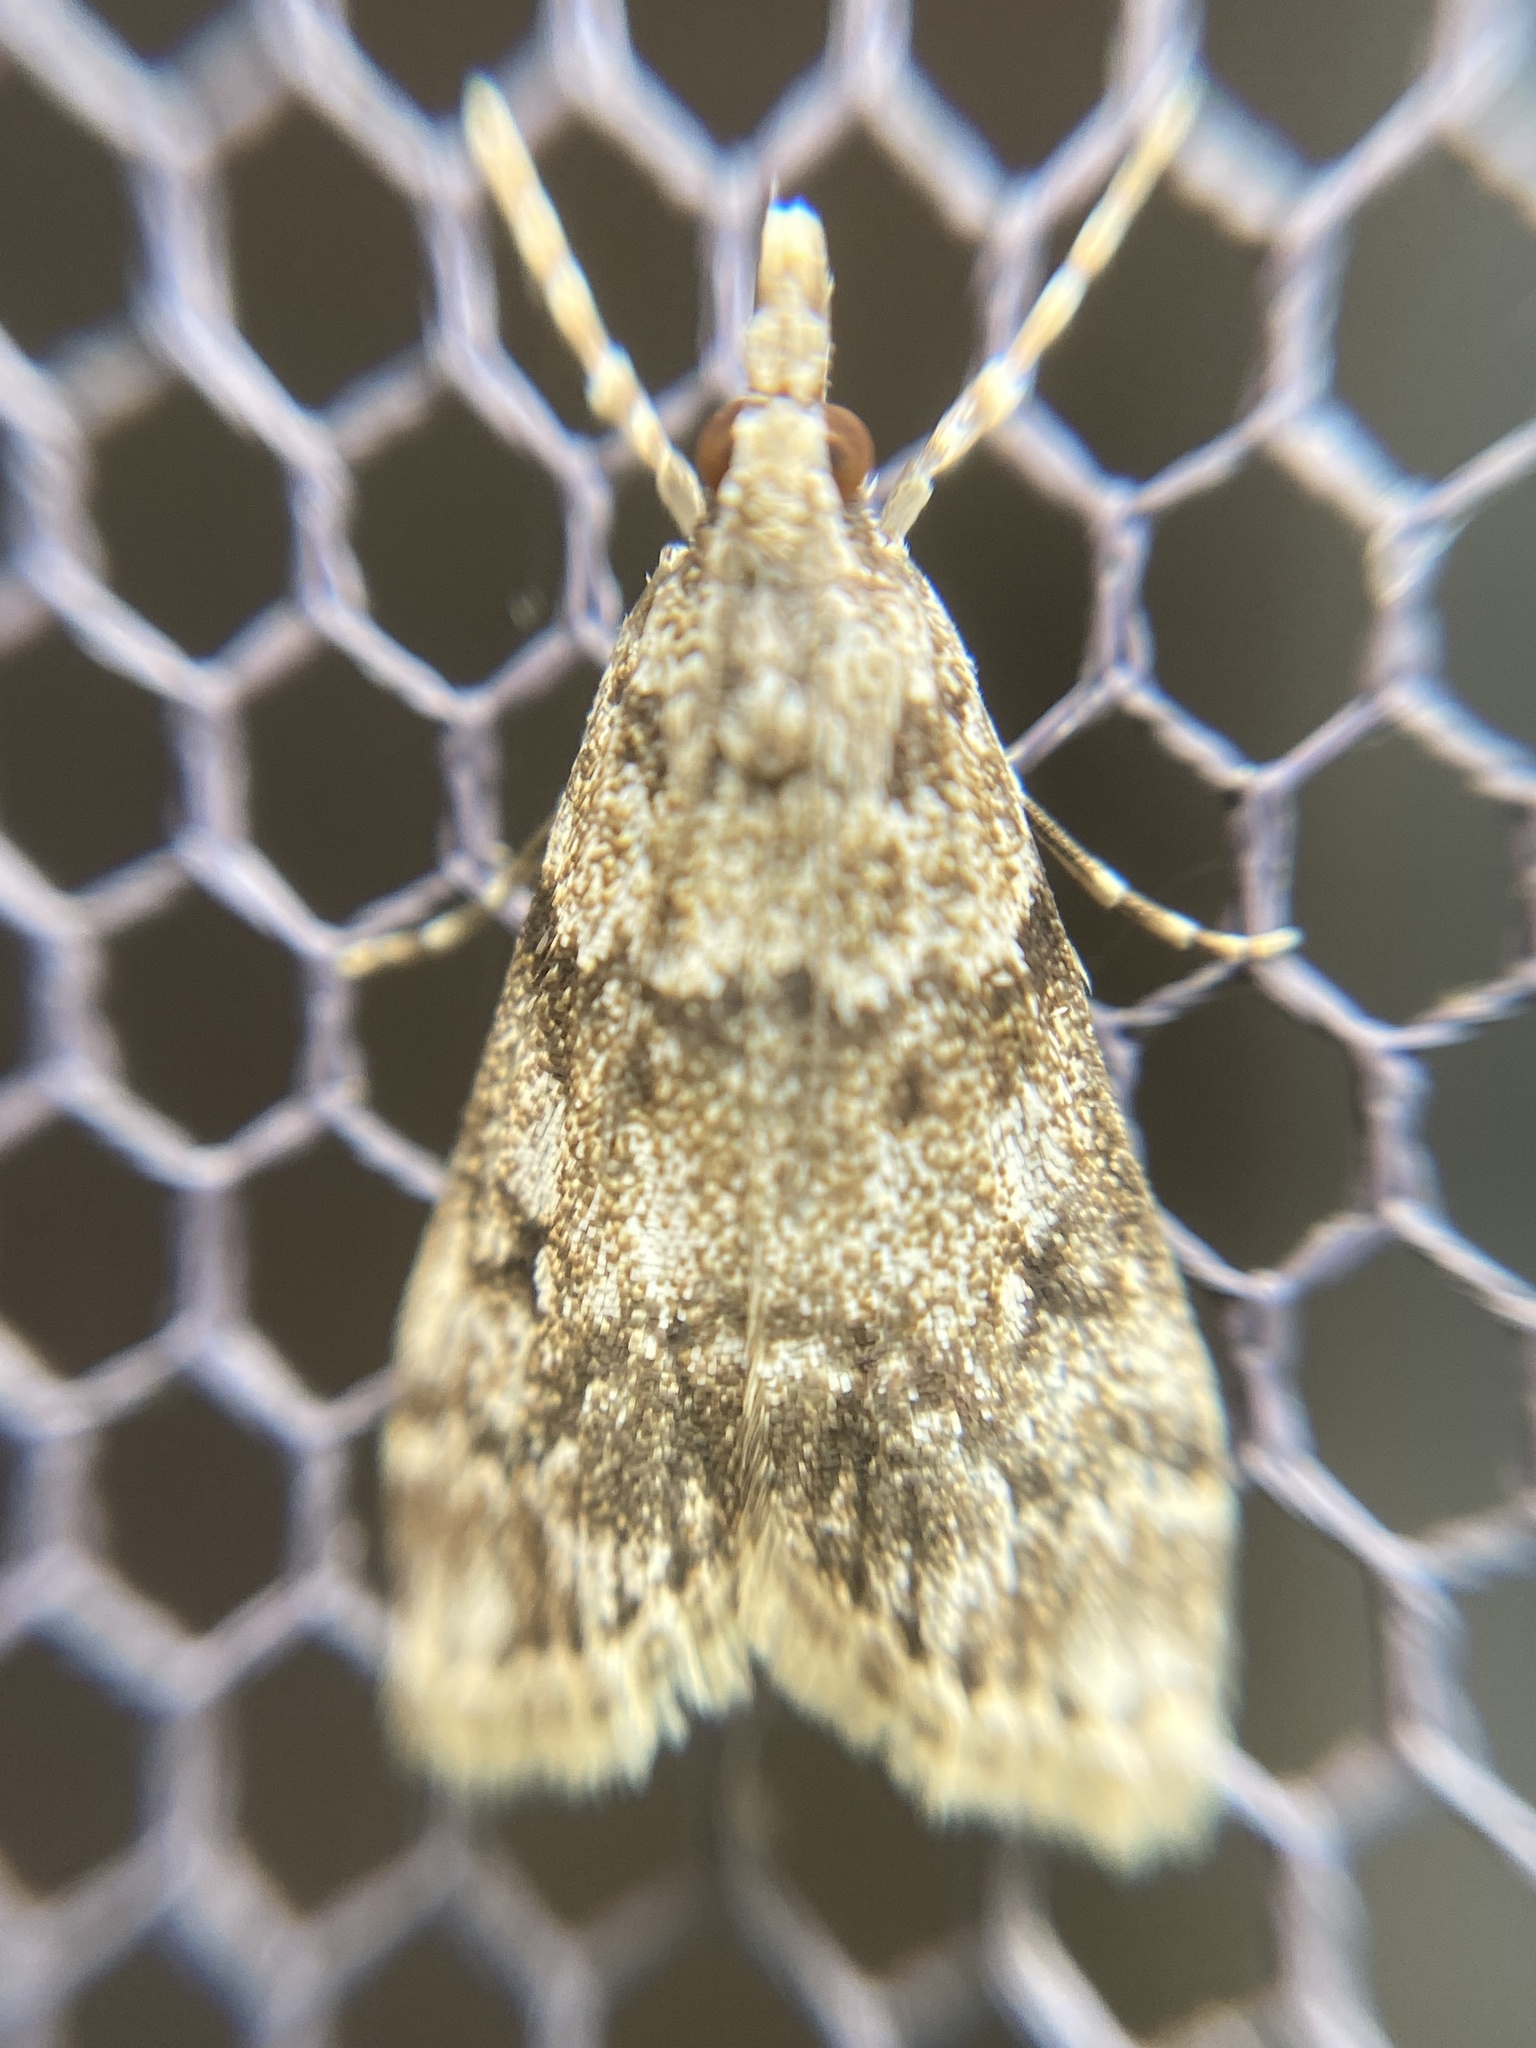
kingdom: Animalia
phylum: Arthropoda
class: Insecta
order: Lepidoptera
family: Crambidae
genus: Eudonia
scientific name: Eudonia lacustrata
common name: Little grey
